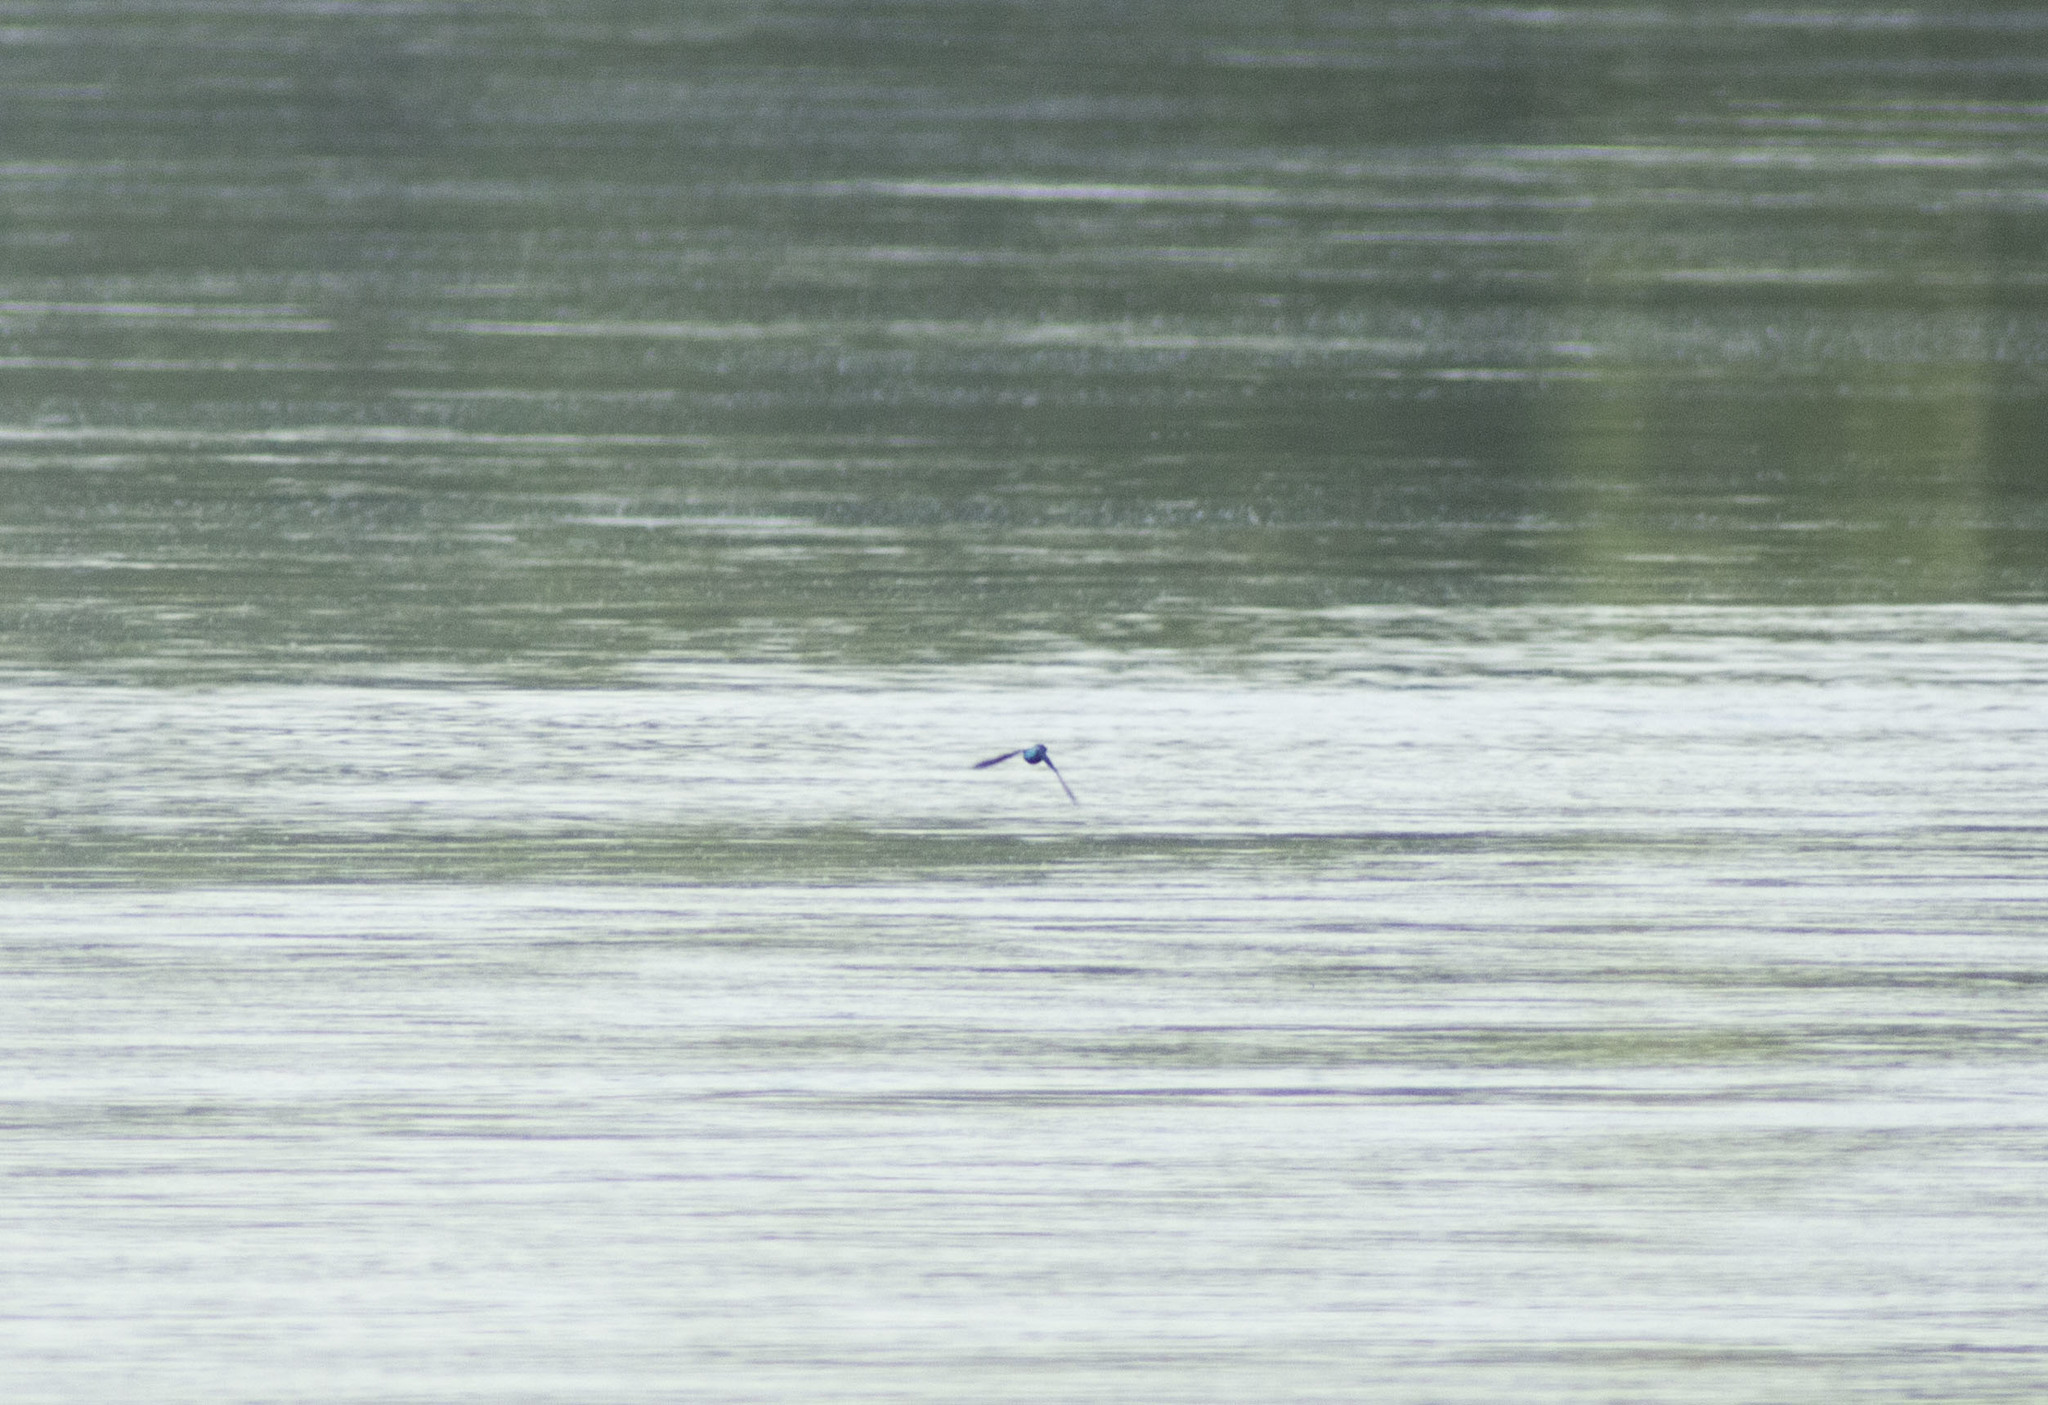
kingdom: Animalia
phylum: Chordata
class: Aves
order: Coraciiformes
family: Alcedinidae
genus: Alcedo
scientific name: Alcedo atthis
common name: Common kingfisher
